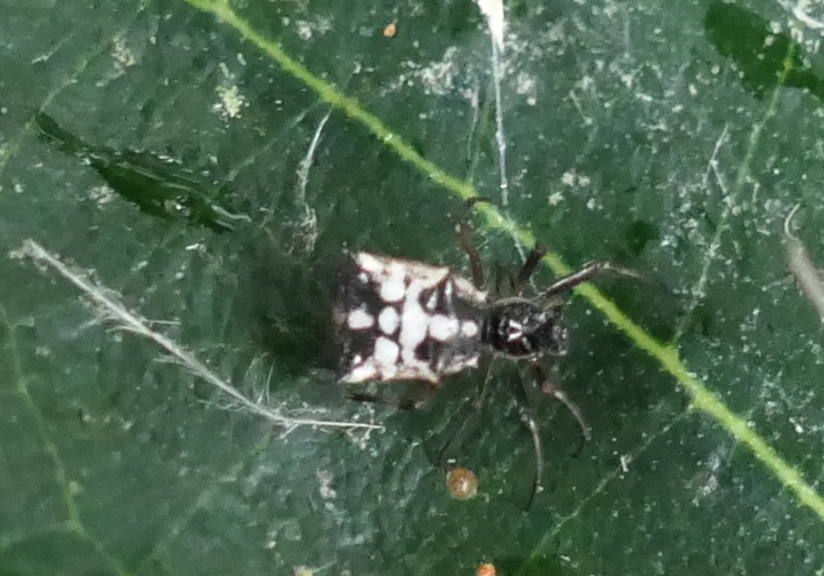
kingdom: Animalia
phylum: Arthropoda
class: Arachnida
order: Araneae
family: Araneidae
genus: Micrathena
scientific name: Micrathena picta
